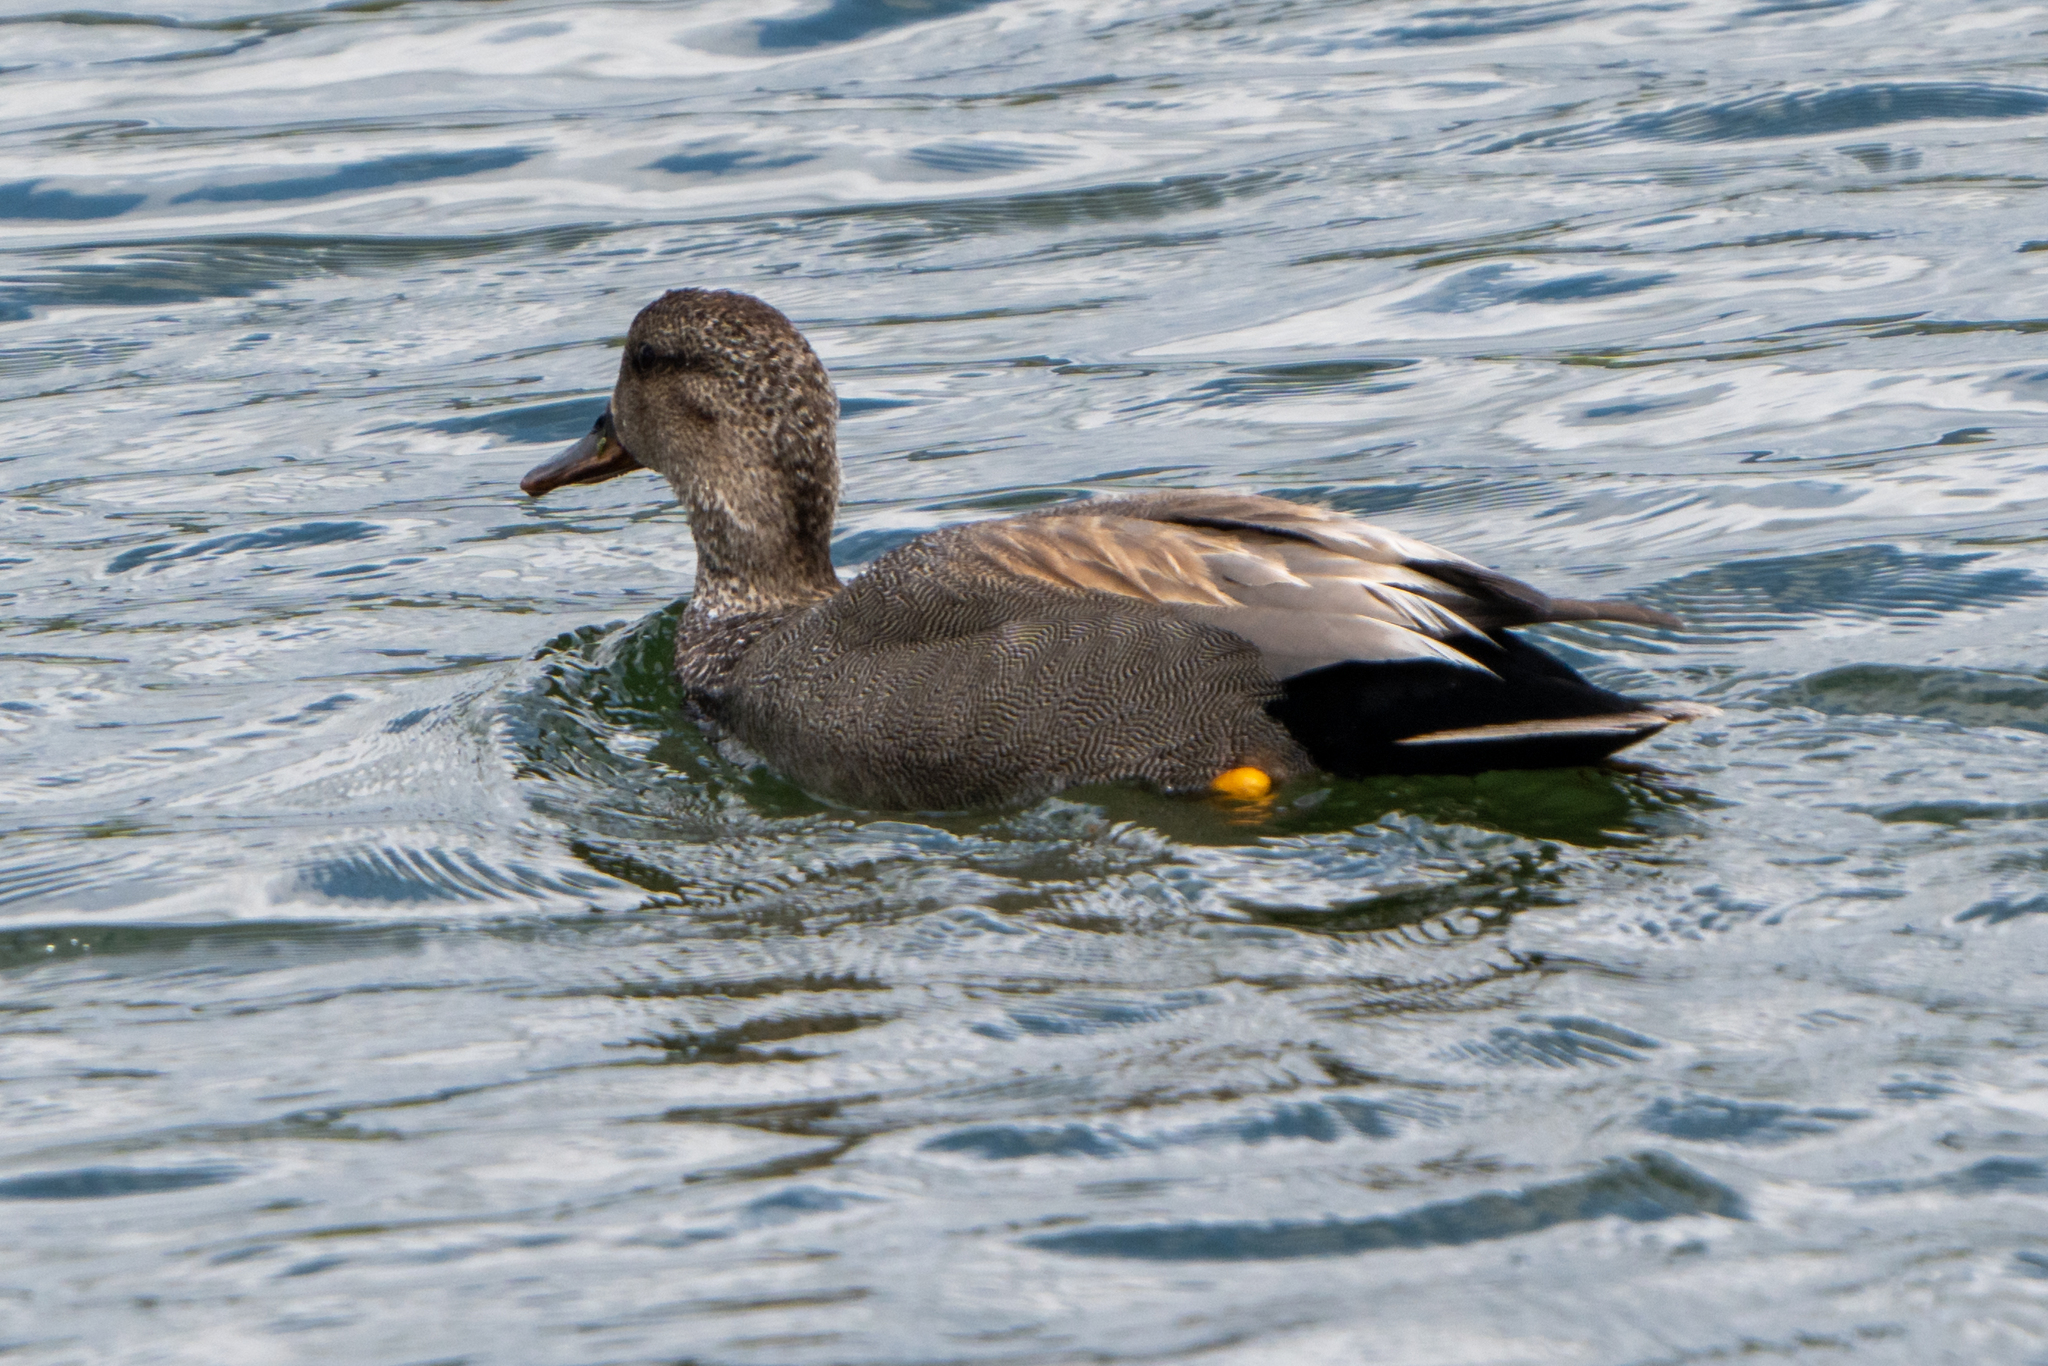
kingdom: Animalia
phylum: Chordata
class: Aves
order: Anseriformes
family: Anatidae
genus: Mareca
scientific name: Mareca strepera
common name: Gadwall
